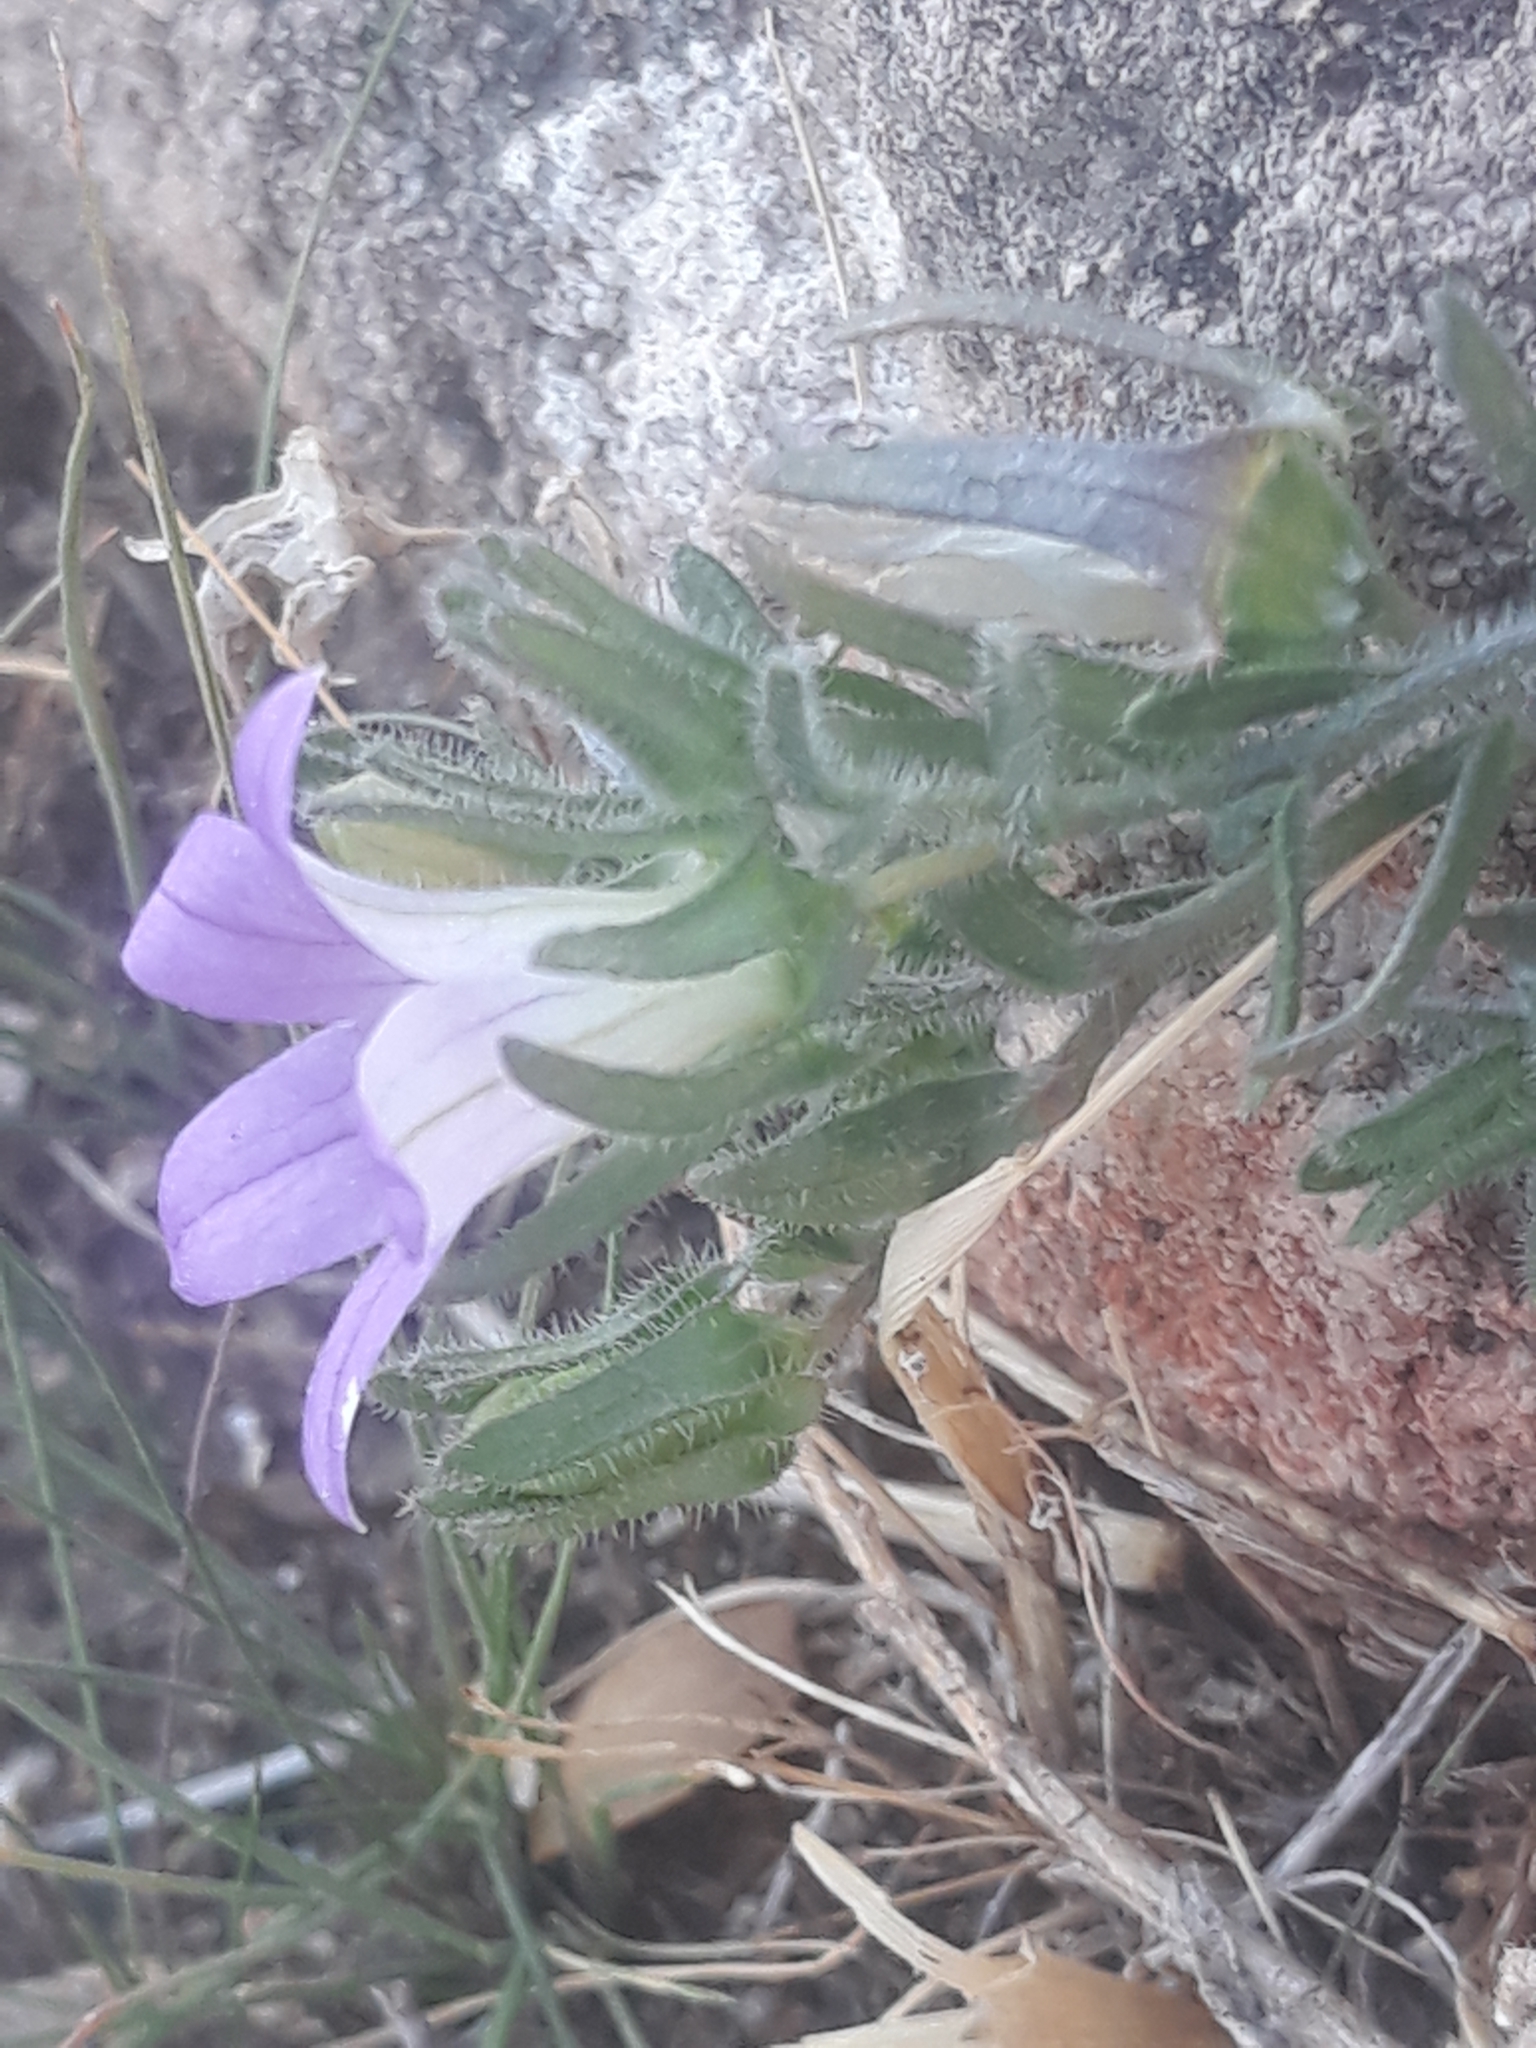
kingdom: Plantae
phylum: Tracheophyta
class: Magnoliopsida
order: Asterales
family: Campanulaceae
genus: Campanula
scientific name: Campanula numidica
